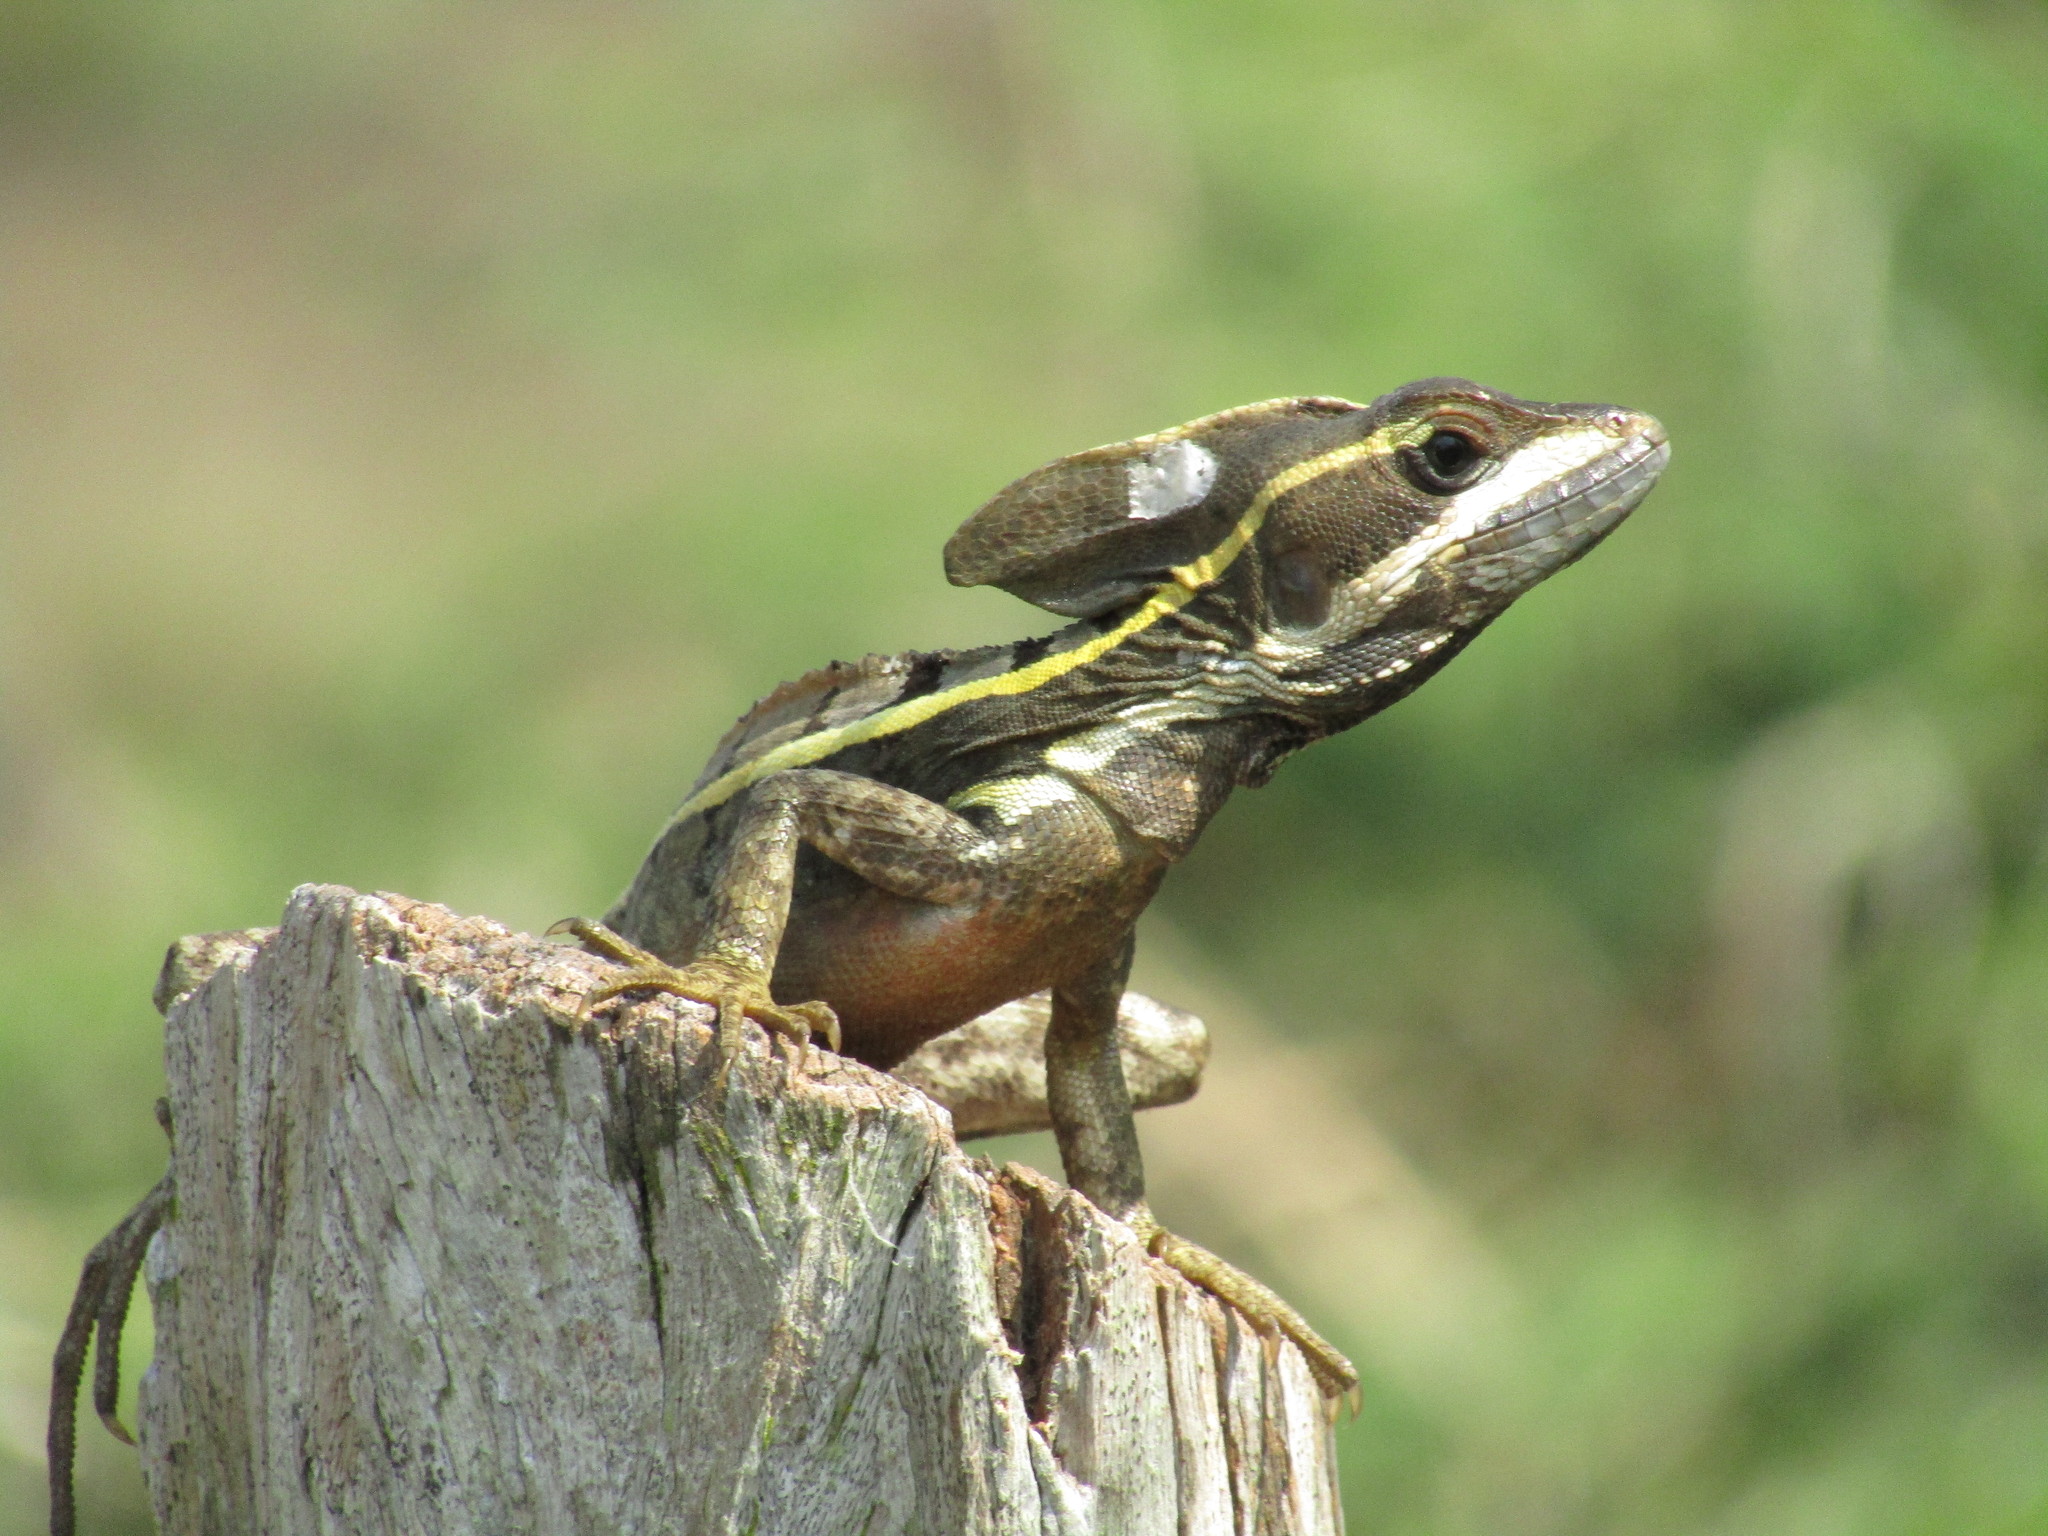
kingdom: Animalia
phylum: Chordata
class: Squamata
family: Corytophanidae
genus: Basiliscus
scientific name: Basiliscus vittatus
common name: Brown basilisk
